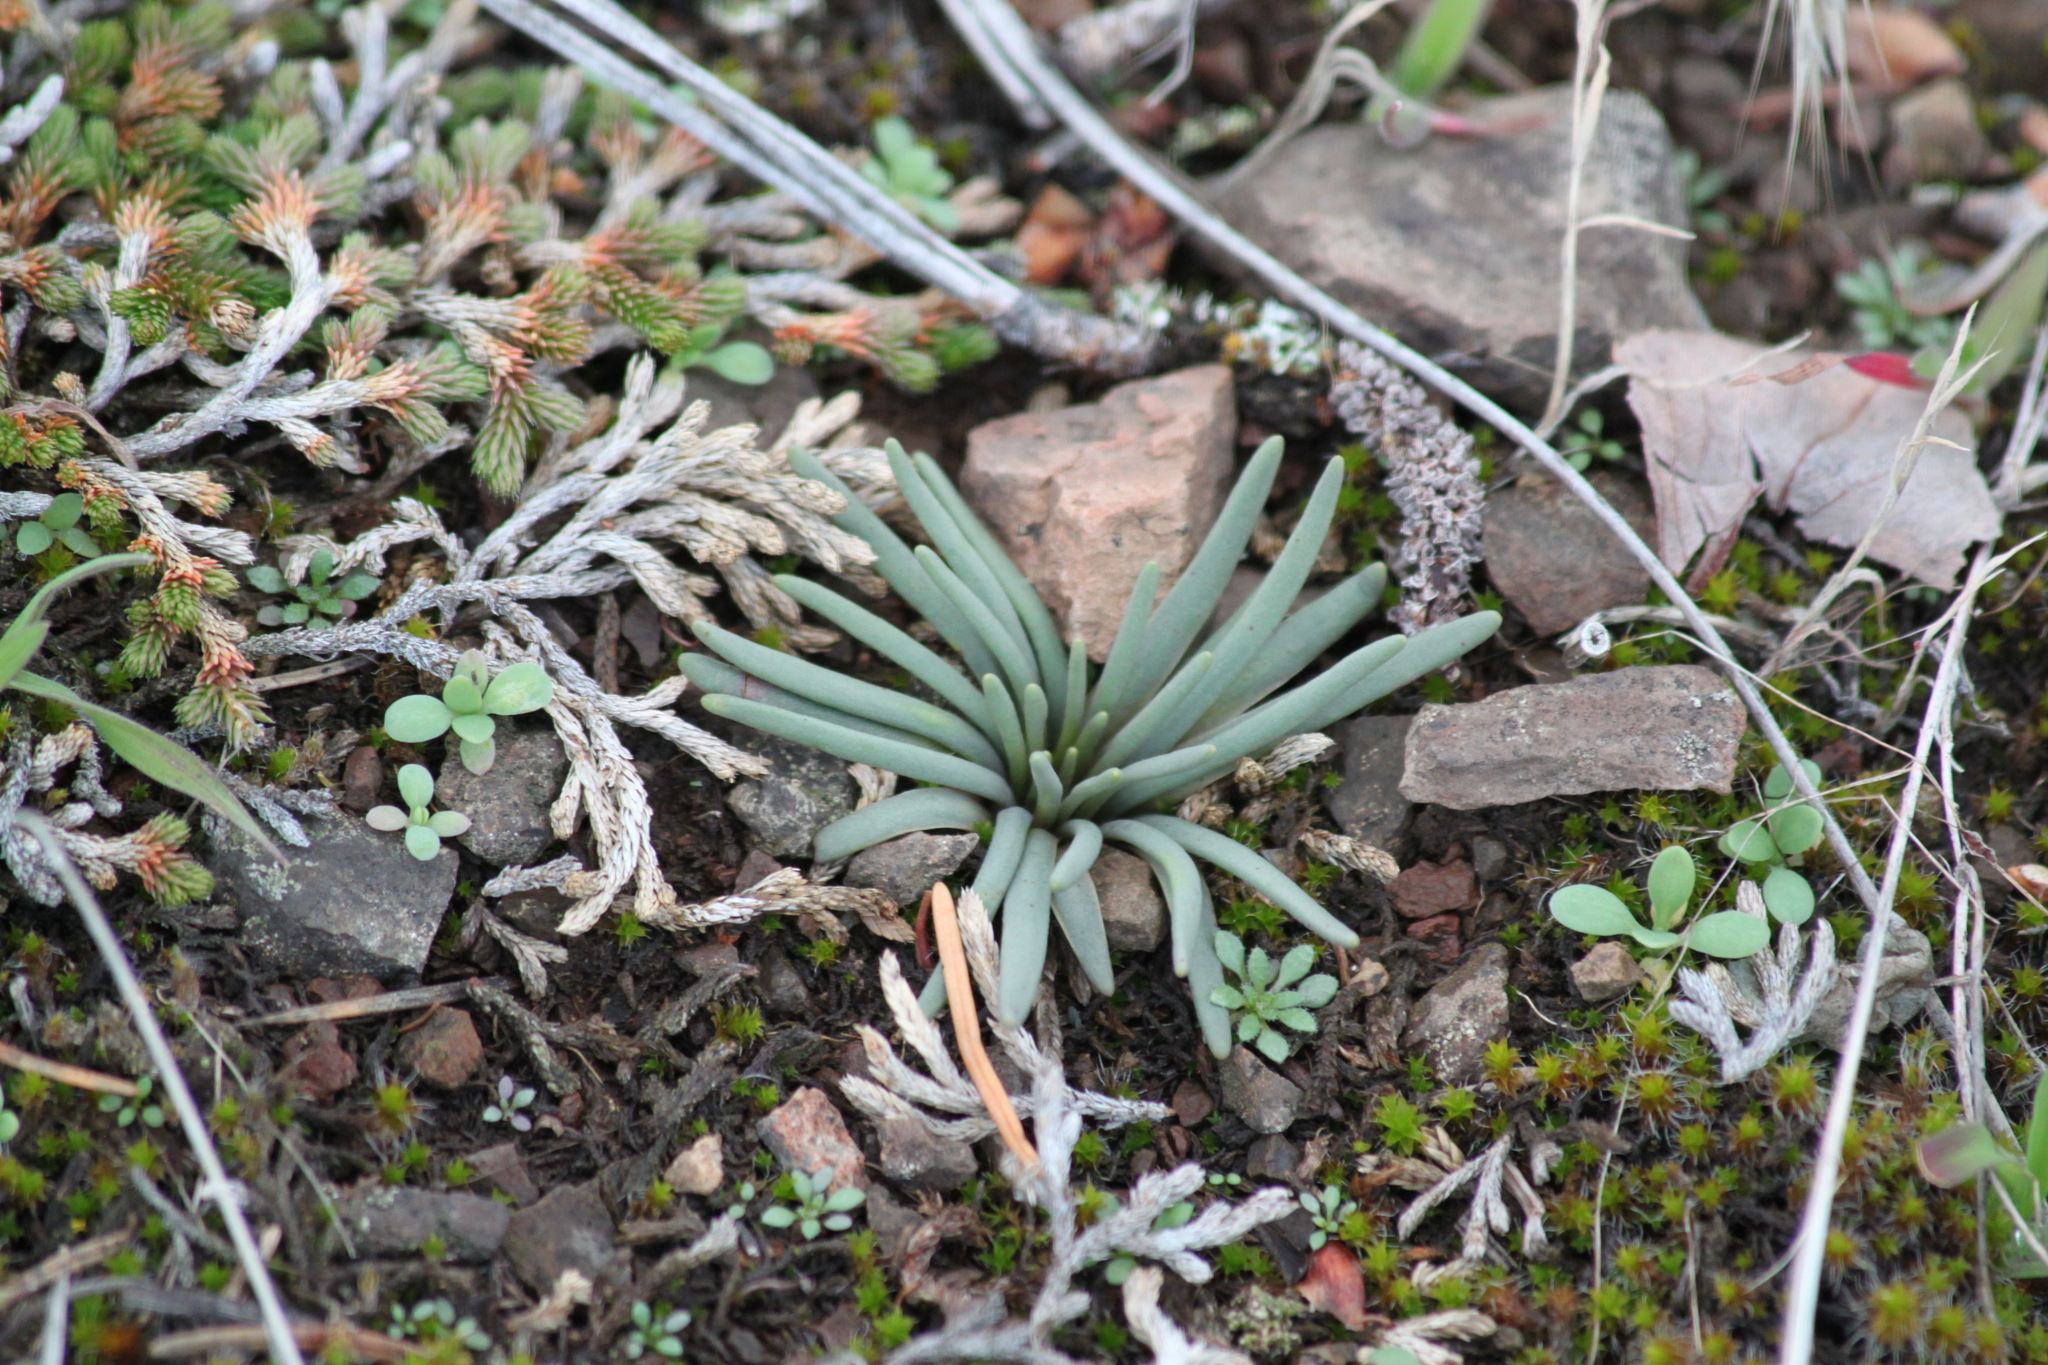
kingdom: Plantae
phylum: Tracheophyta
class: Magnoliopsida
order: Caryophyllales
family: Montiaceae
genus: Lewisia
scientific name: Lewisia rediviva
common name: Bitter-root
